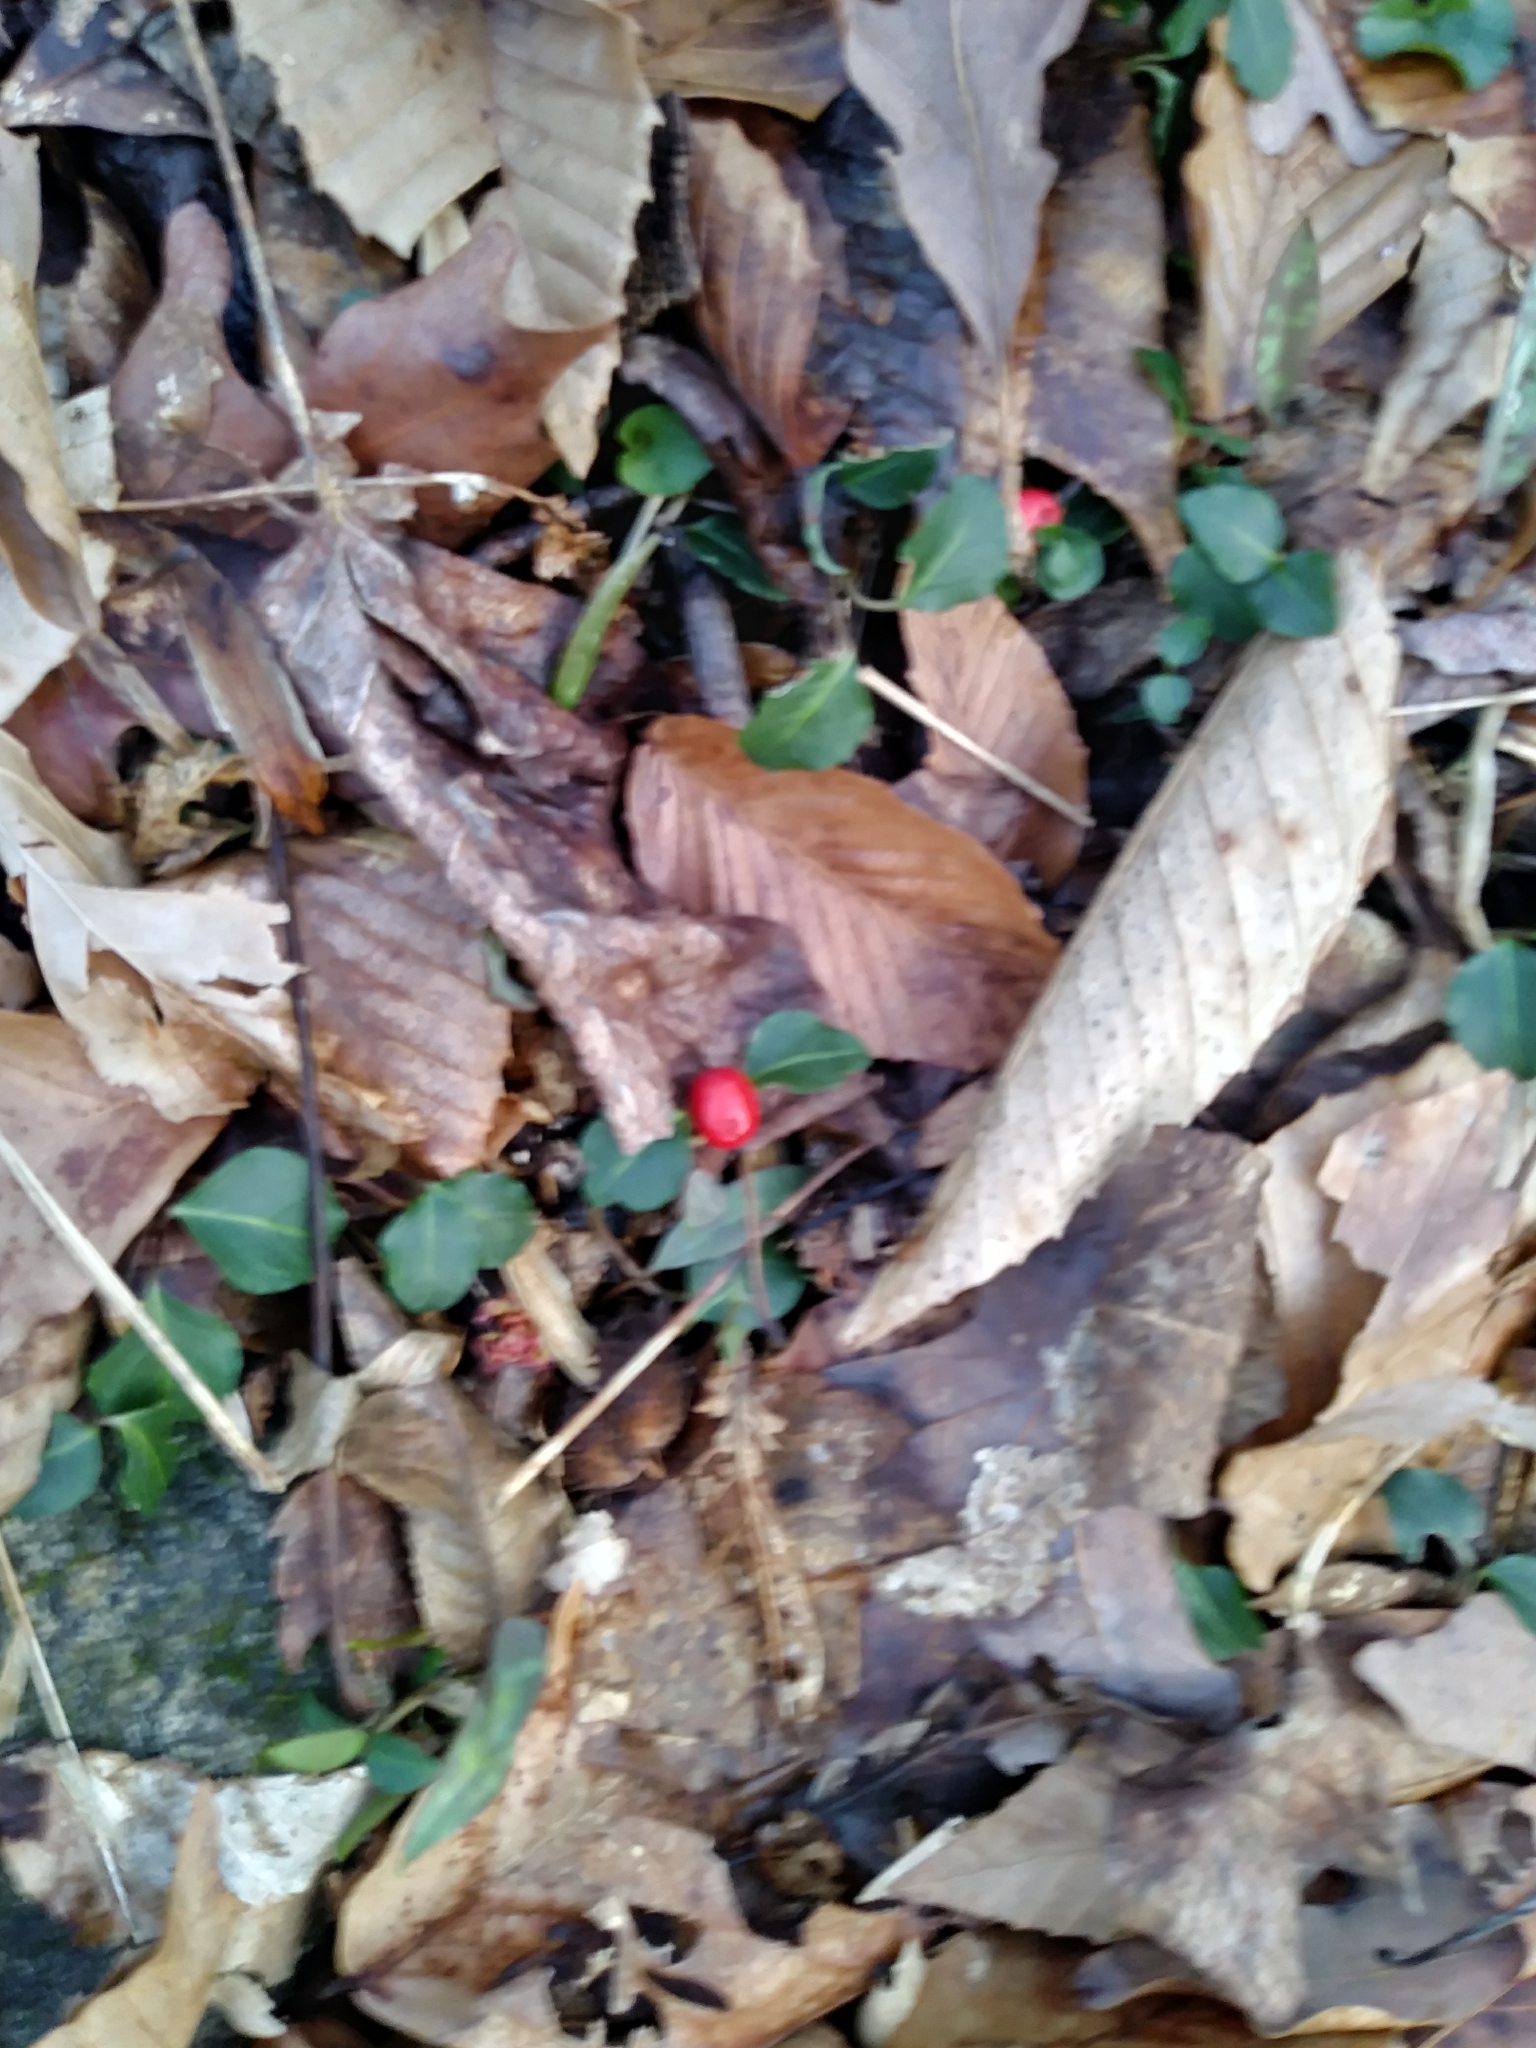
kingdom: Plantae
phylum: Tracheophyta
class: Magnoliopsida
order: Gentianales
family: Rubiaceae
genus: Mitchella
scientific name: Mitchella repens
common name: Partridge-berry
